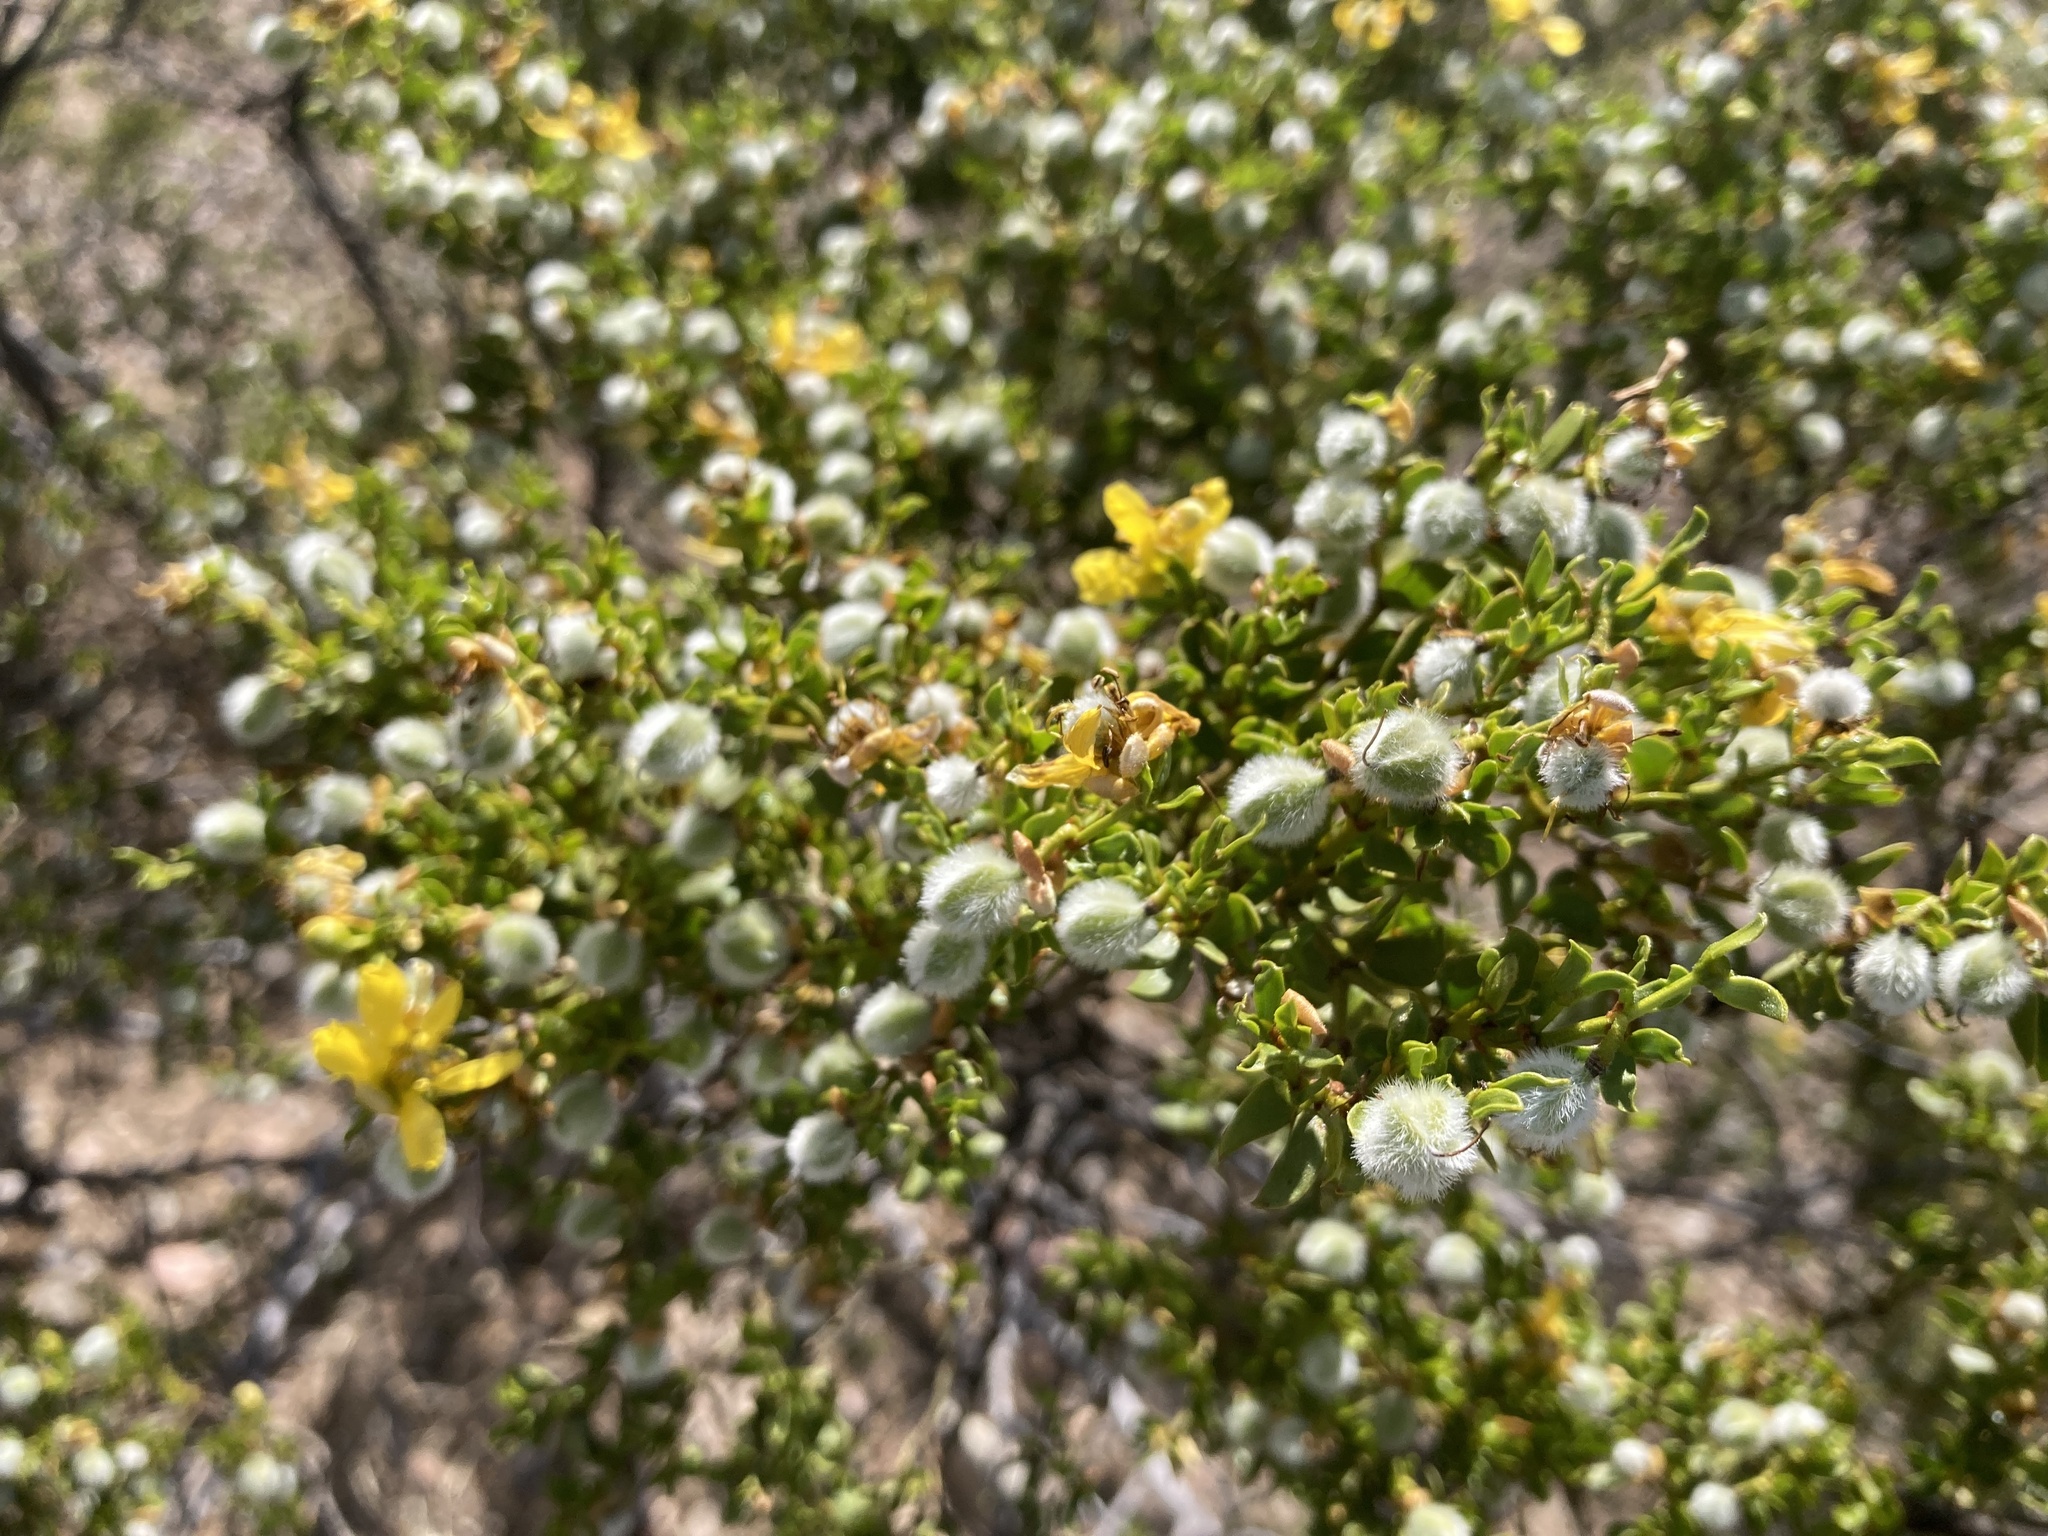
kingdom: Plantae
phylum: Tracheophyta
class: Magnoliopsida
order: Zygophyllales
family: Zygophyllaceae
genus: Larrea
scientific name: Larrea tridentata
